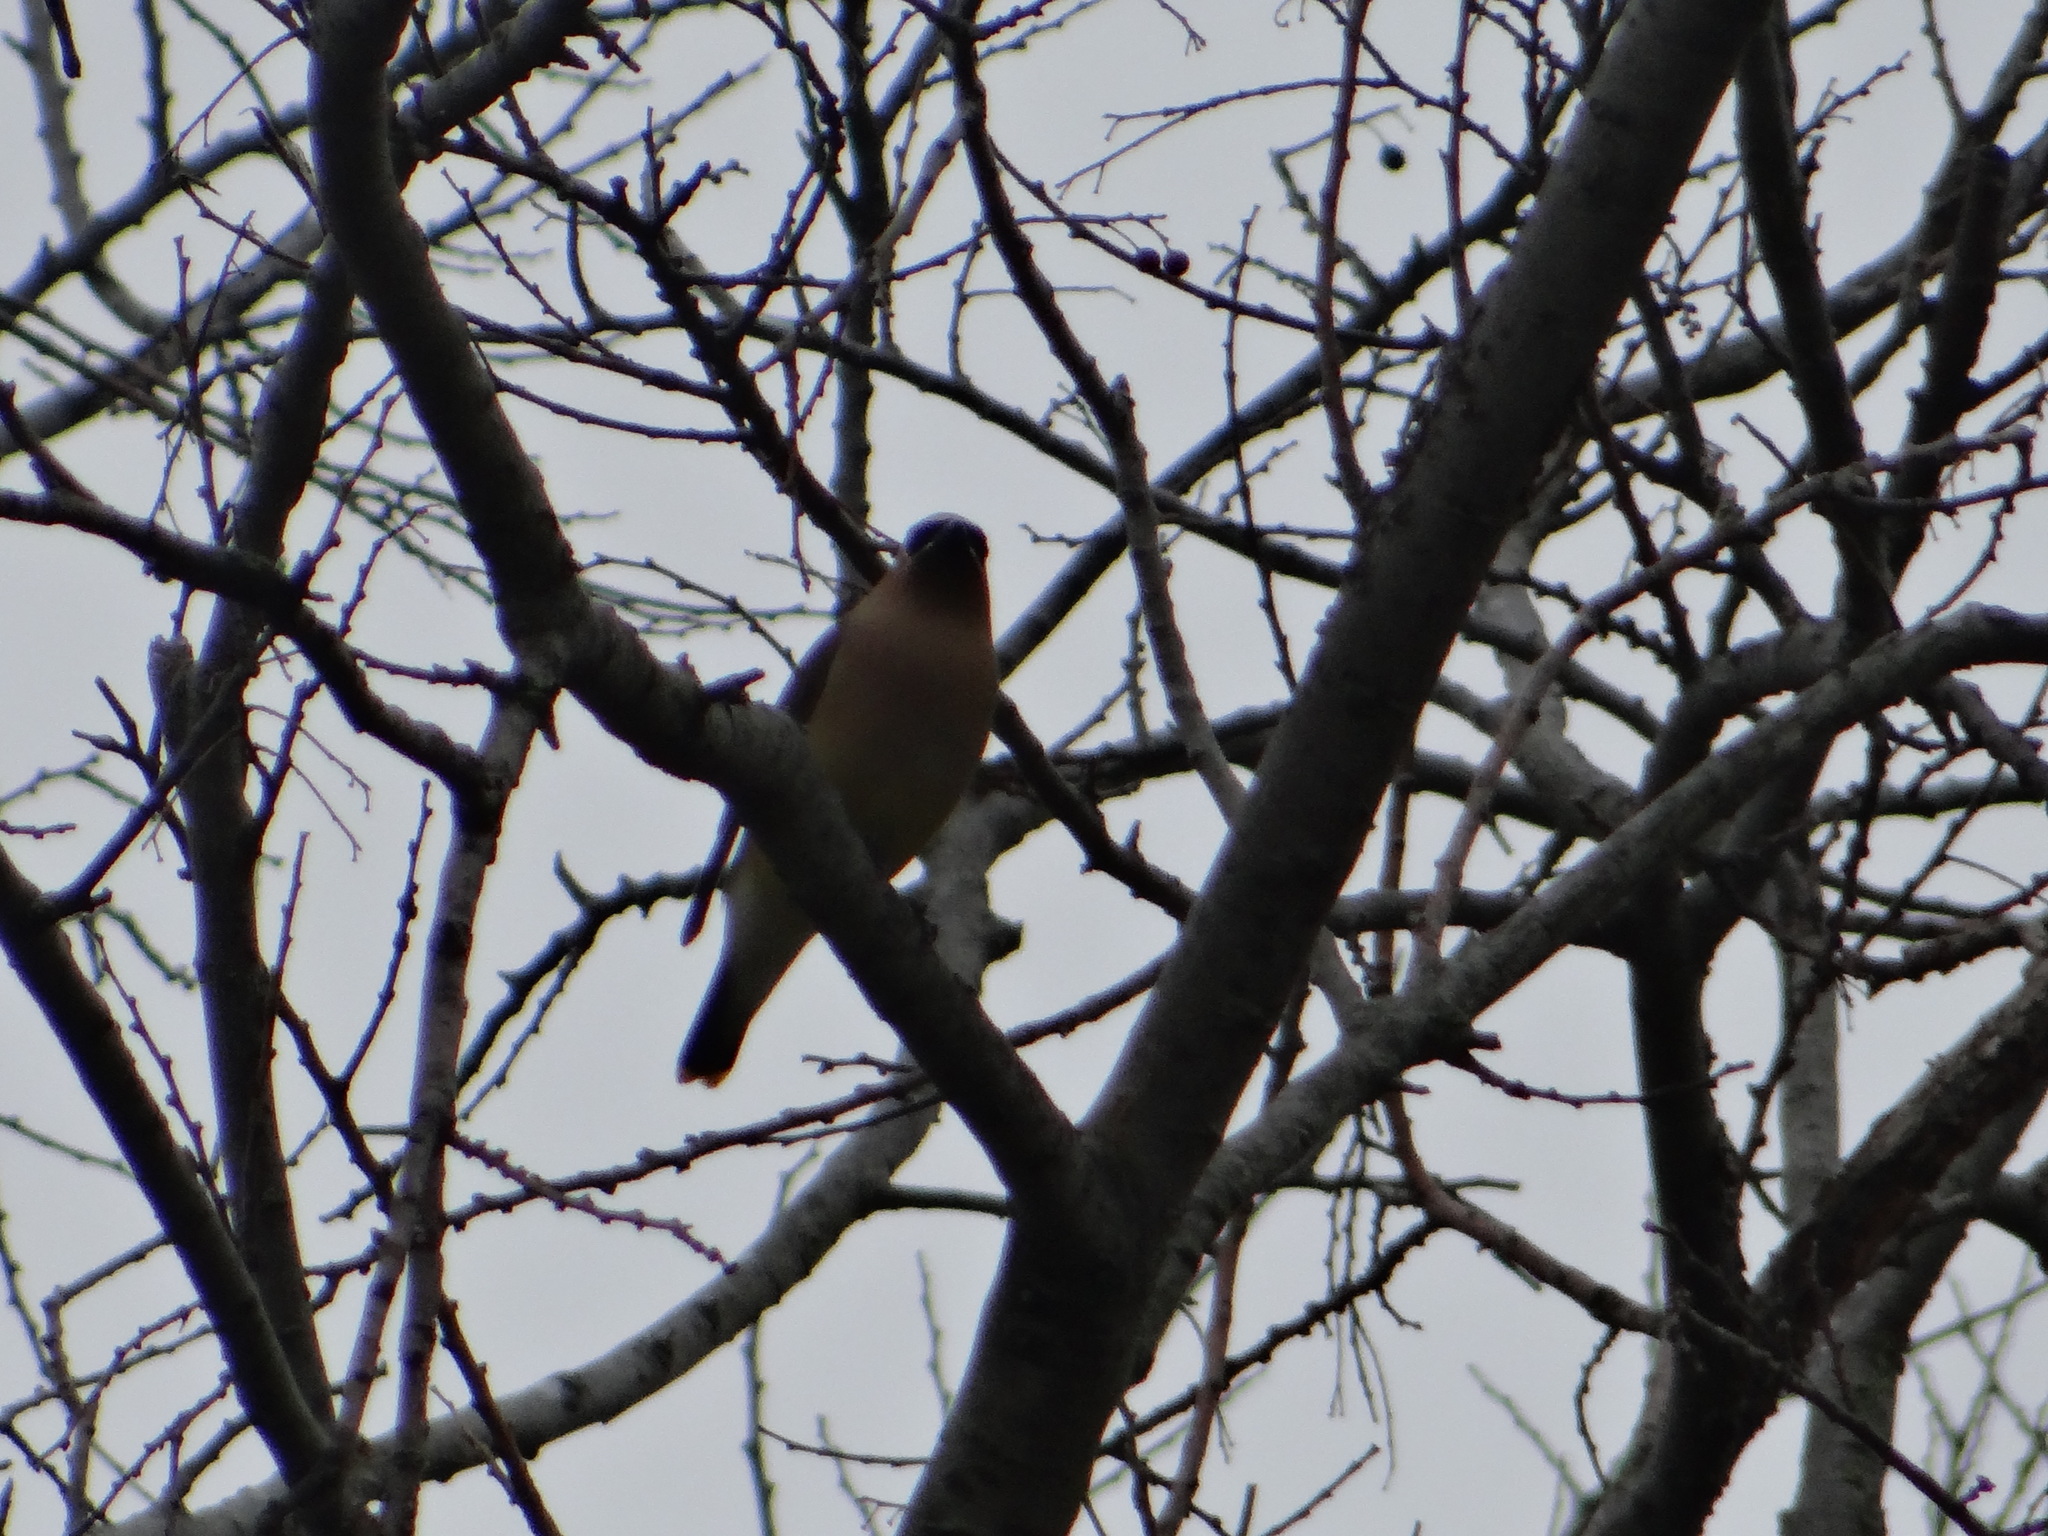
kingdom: Animalia
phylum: Chordata
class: Aves
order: Passeriformes
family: Bombycillidae
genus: Bombycilla
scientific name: Bombycilla cedrorum
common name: Cedar waxwing
